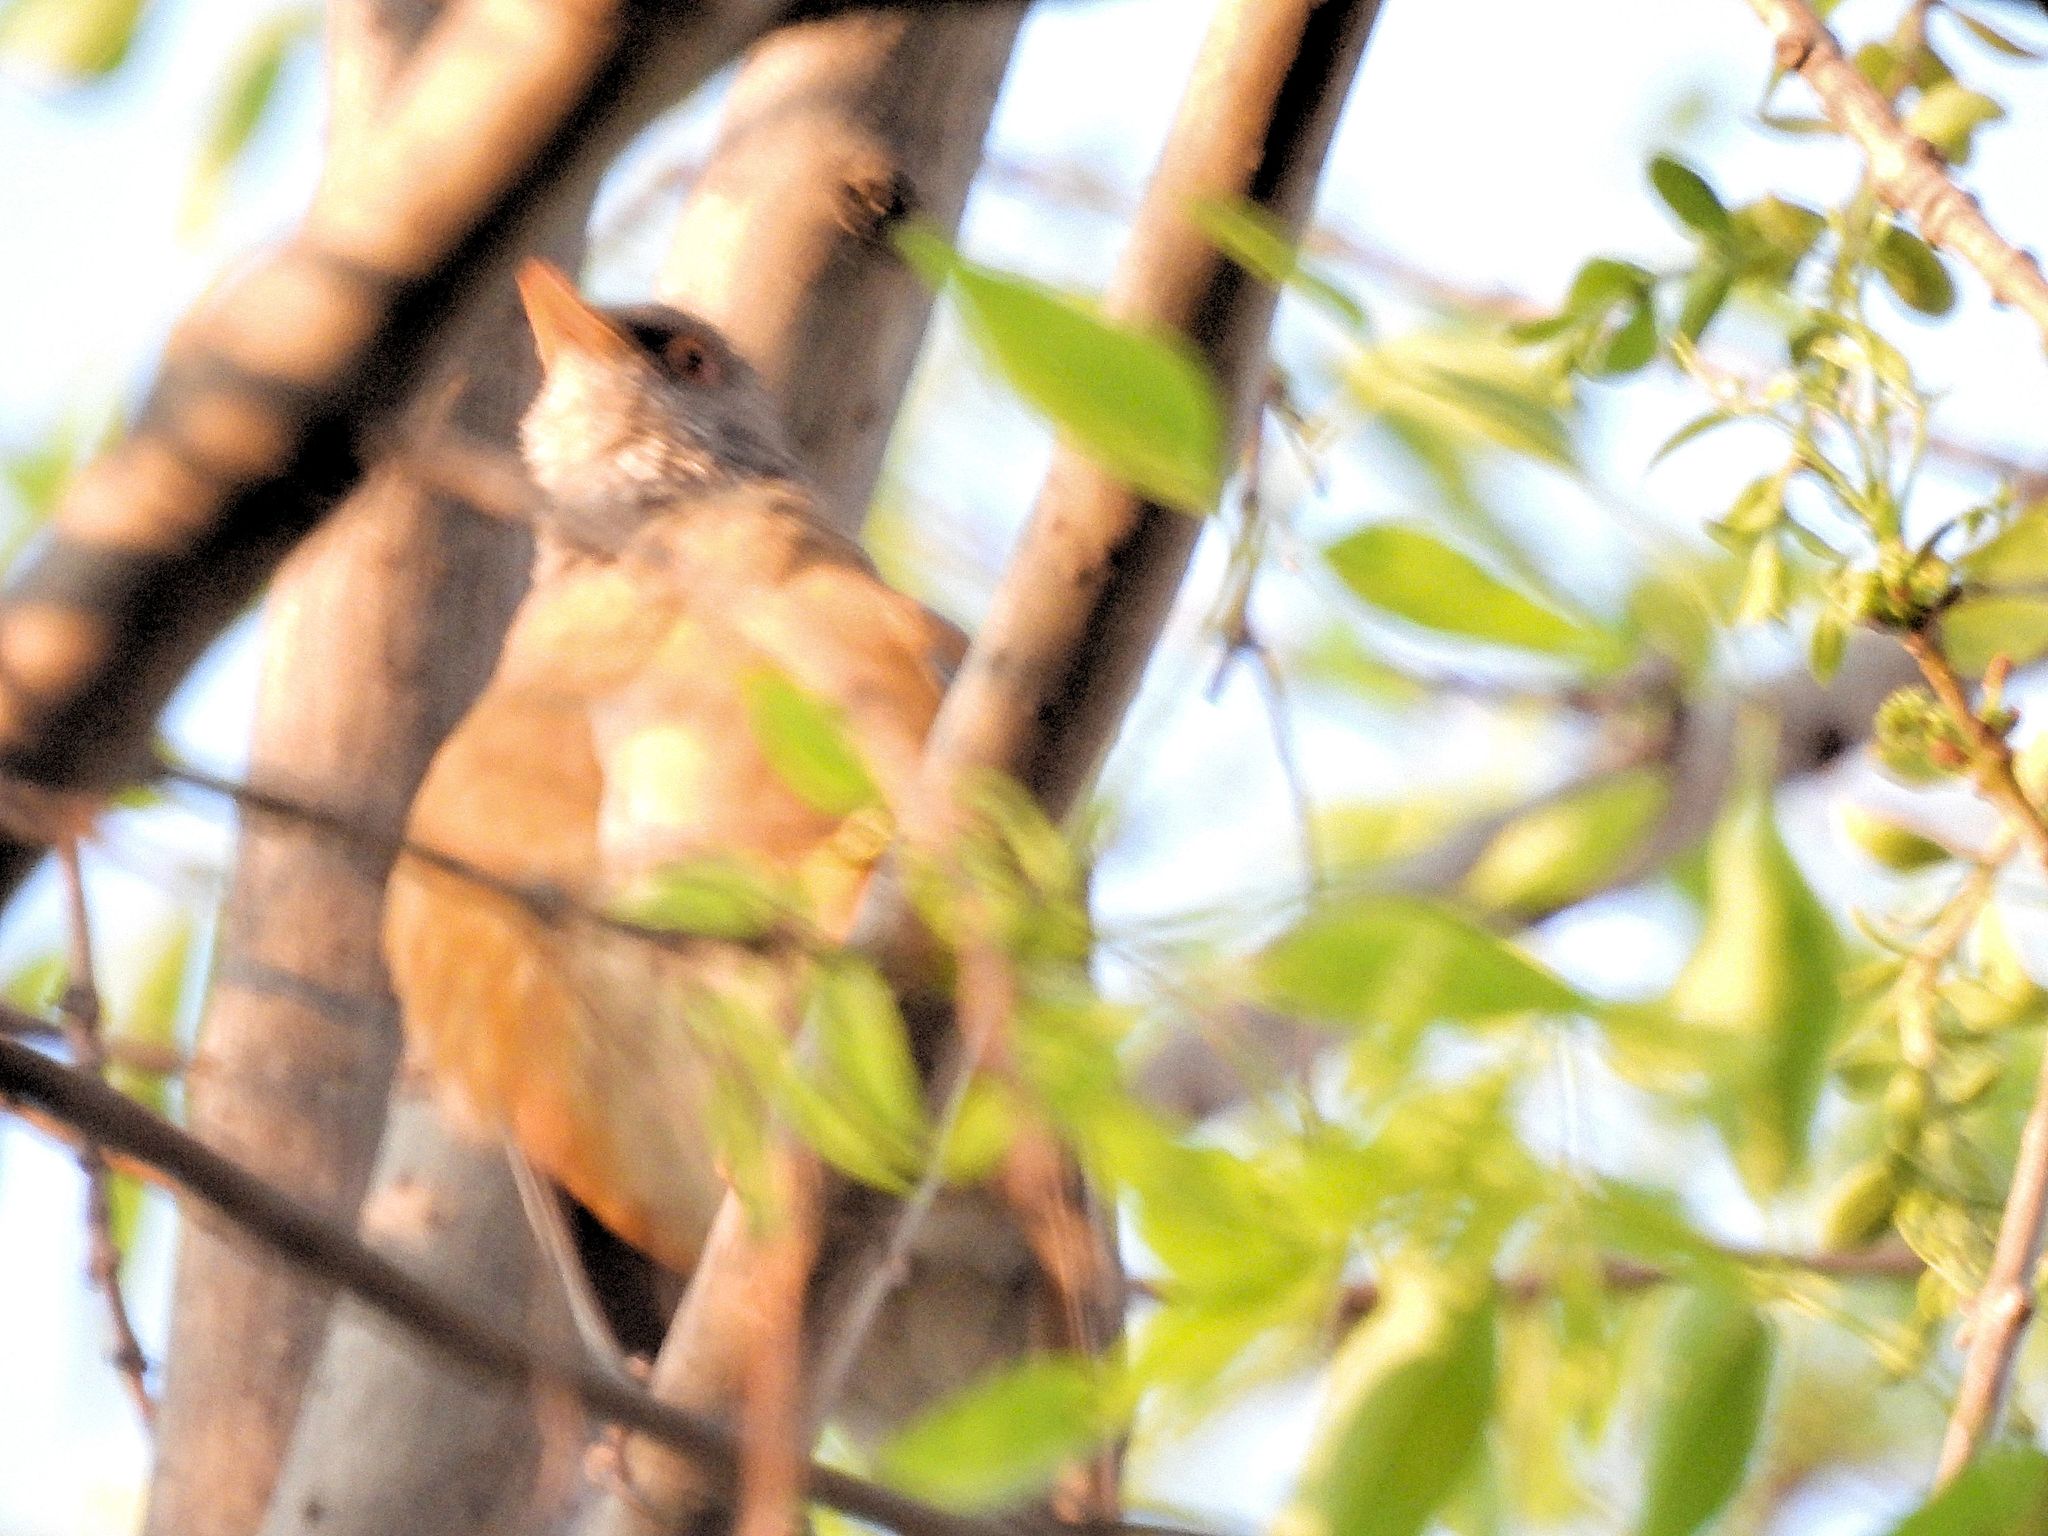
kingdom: Animalia
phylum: Chordata
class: Aves
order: Passeriformes
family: Turdidae
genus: Turdus
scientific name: Turdus rufopalliatus
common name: Rufous-backed robin
